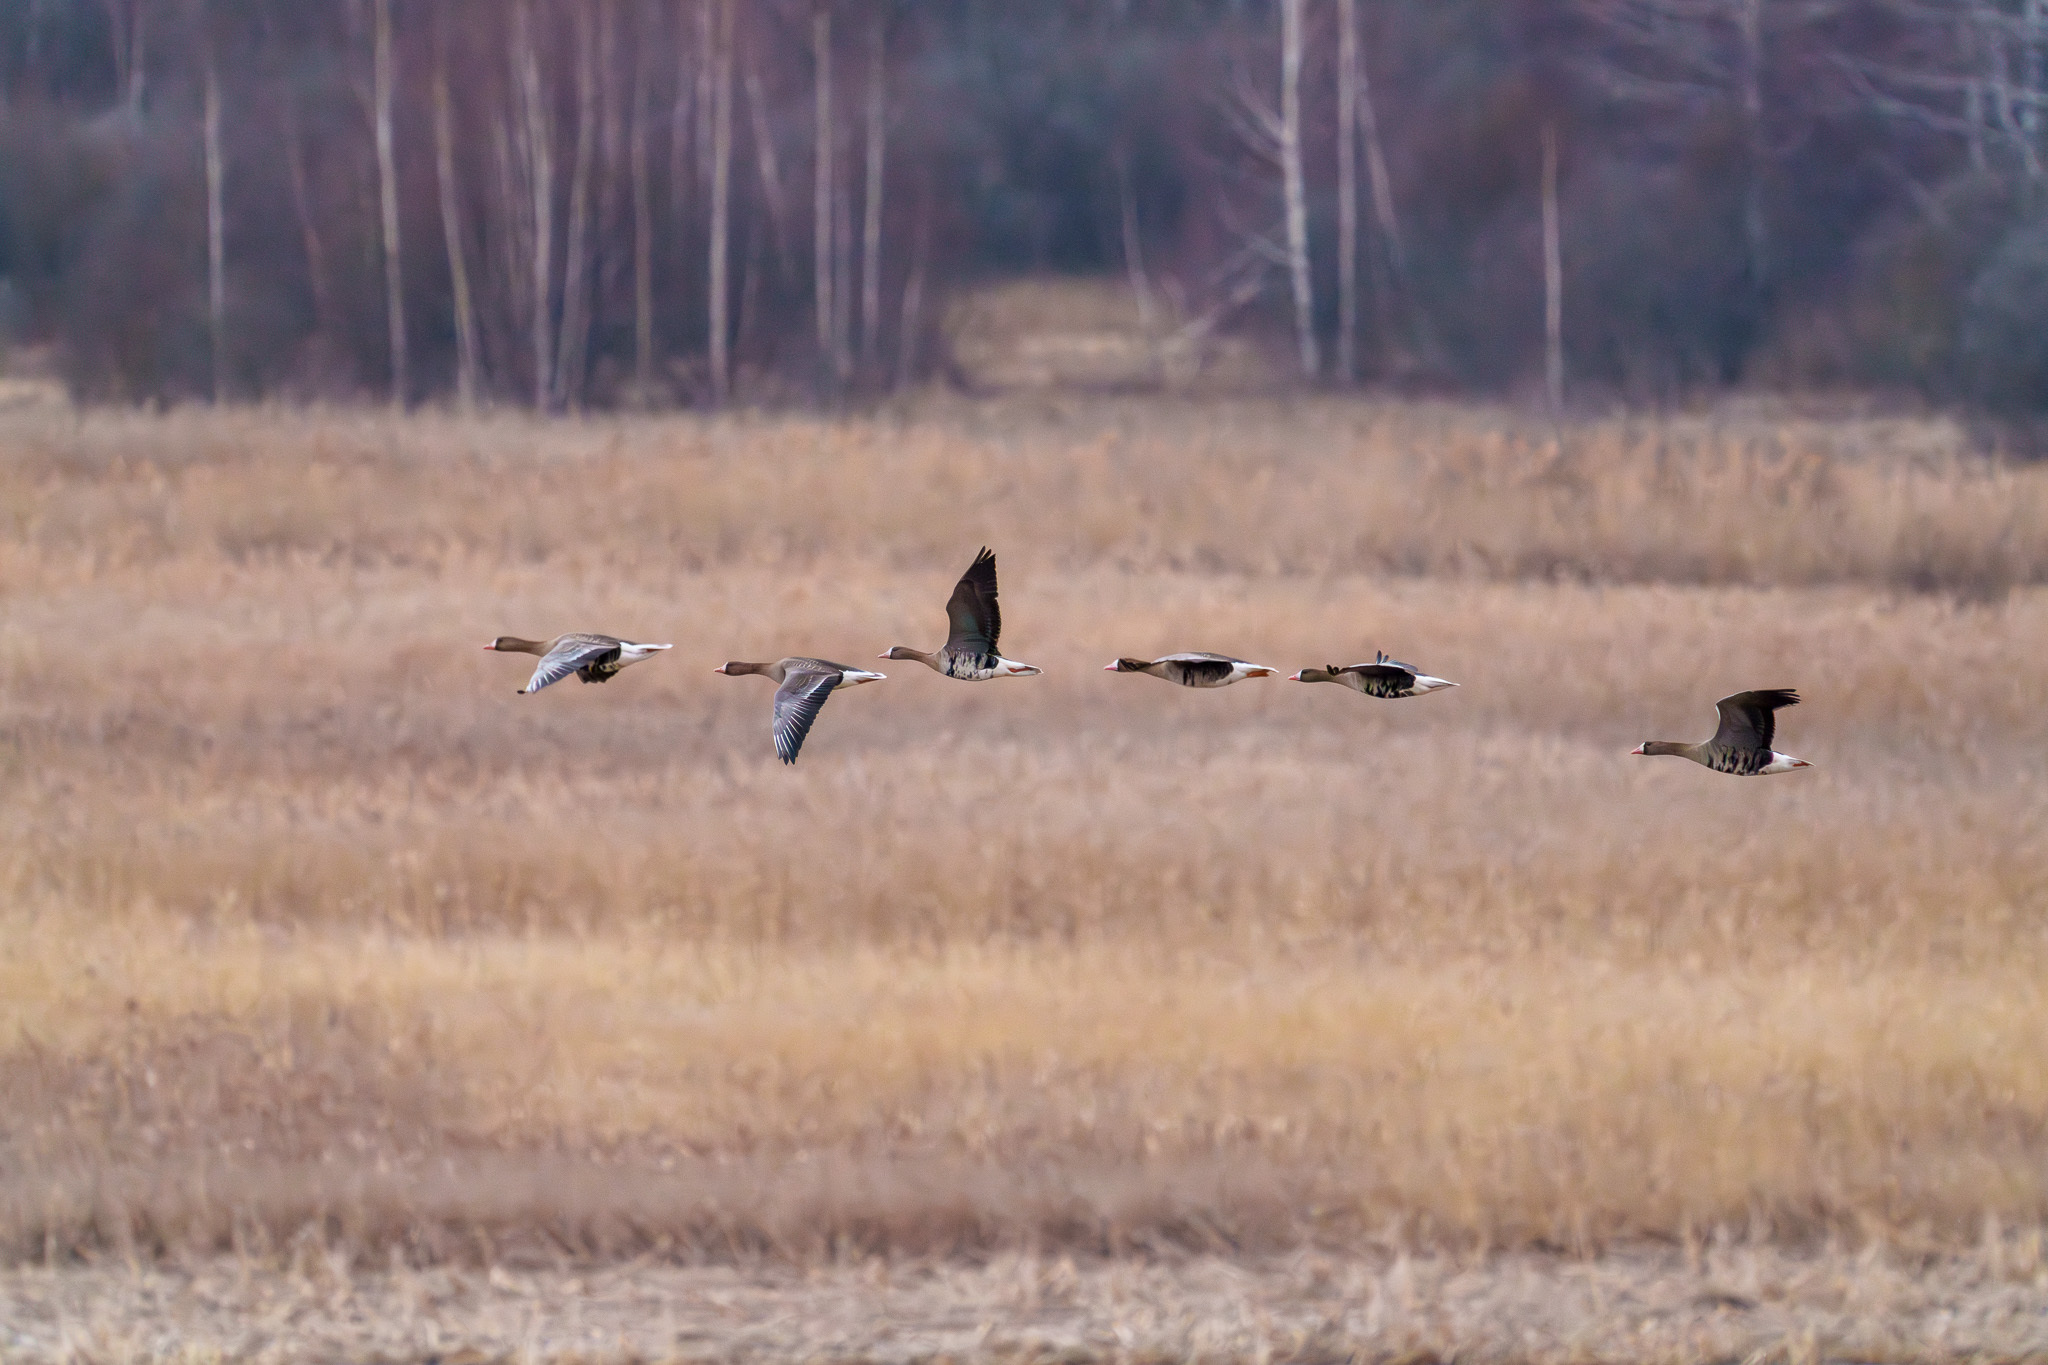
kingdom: Animalia
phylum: Chordata
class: Aves
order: Anseriformes
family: Anatidae
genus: Anser
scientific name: Anser albifrons
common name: Greater white-fronted goose
